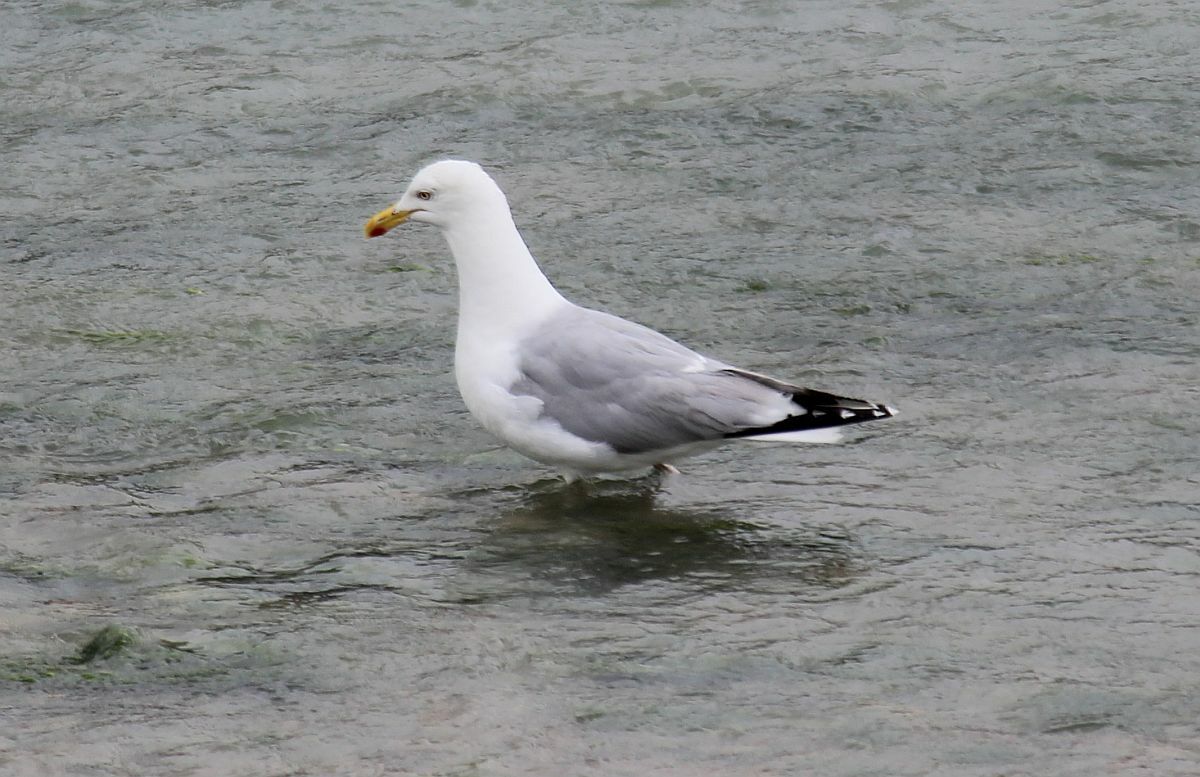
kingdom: Animalia
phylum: Chordata
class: Aves
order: Charadriiformes
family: Laridae
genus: Larus
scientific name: Larus argentatus
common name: Herring gull
